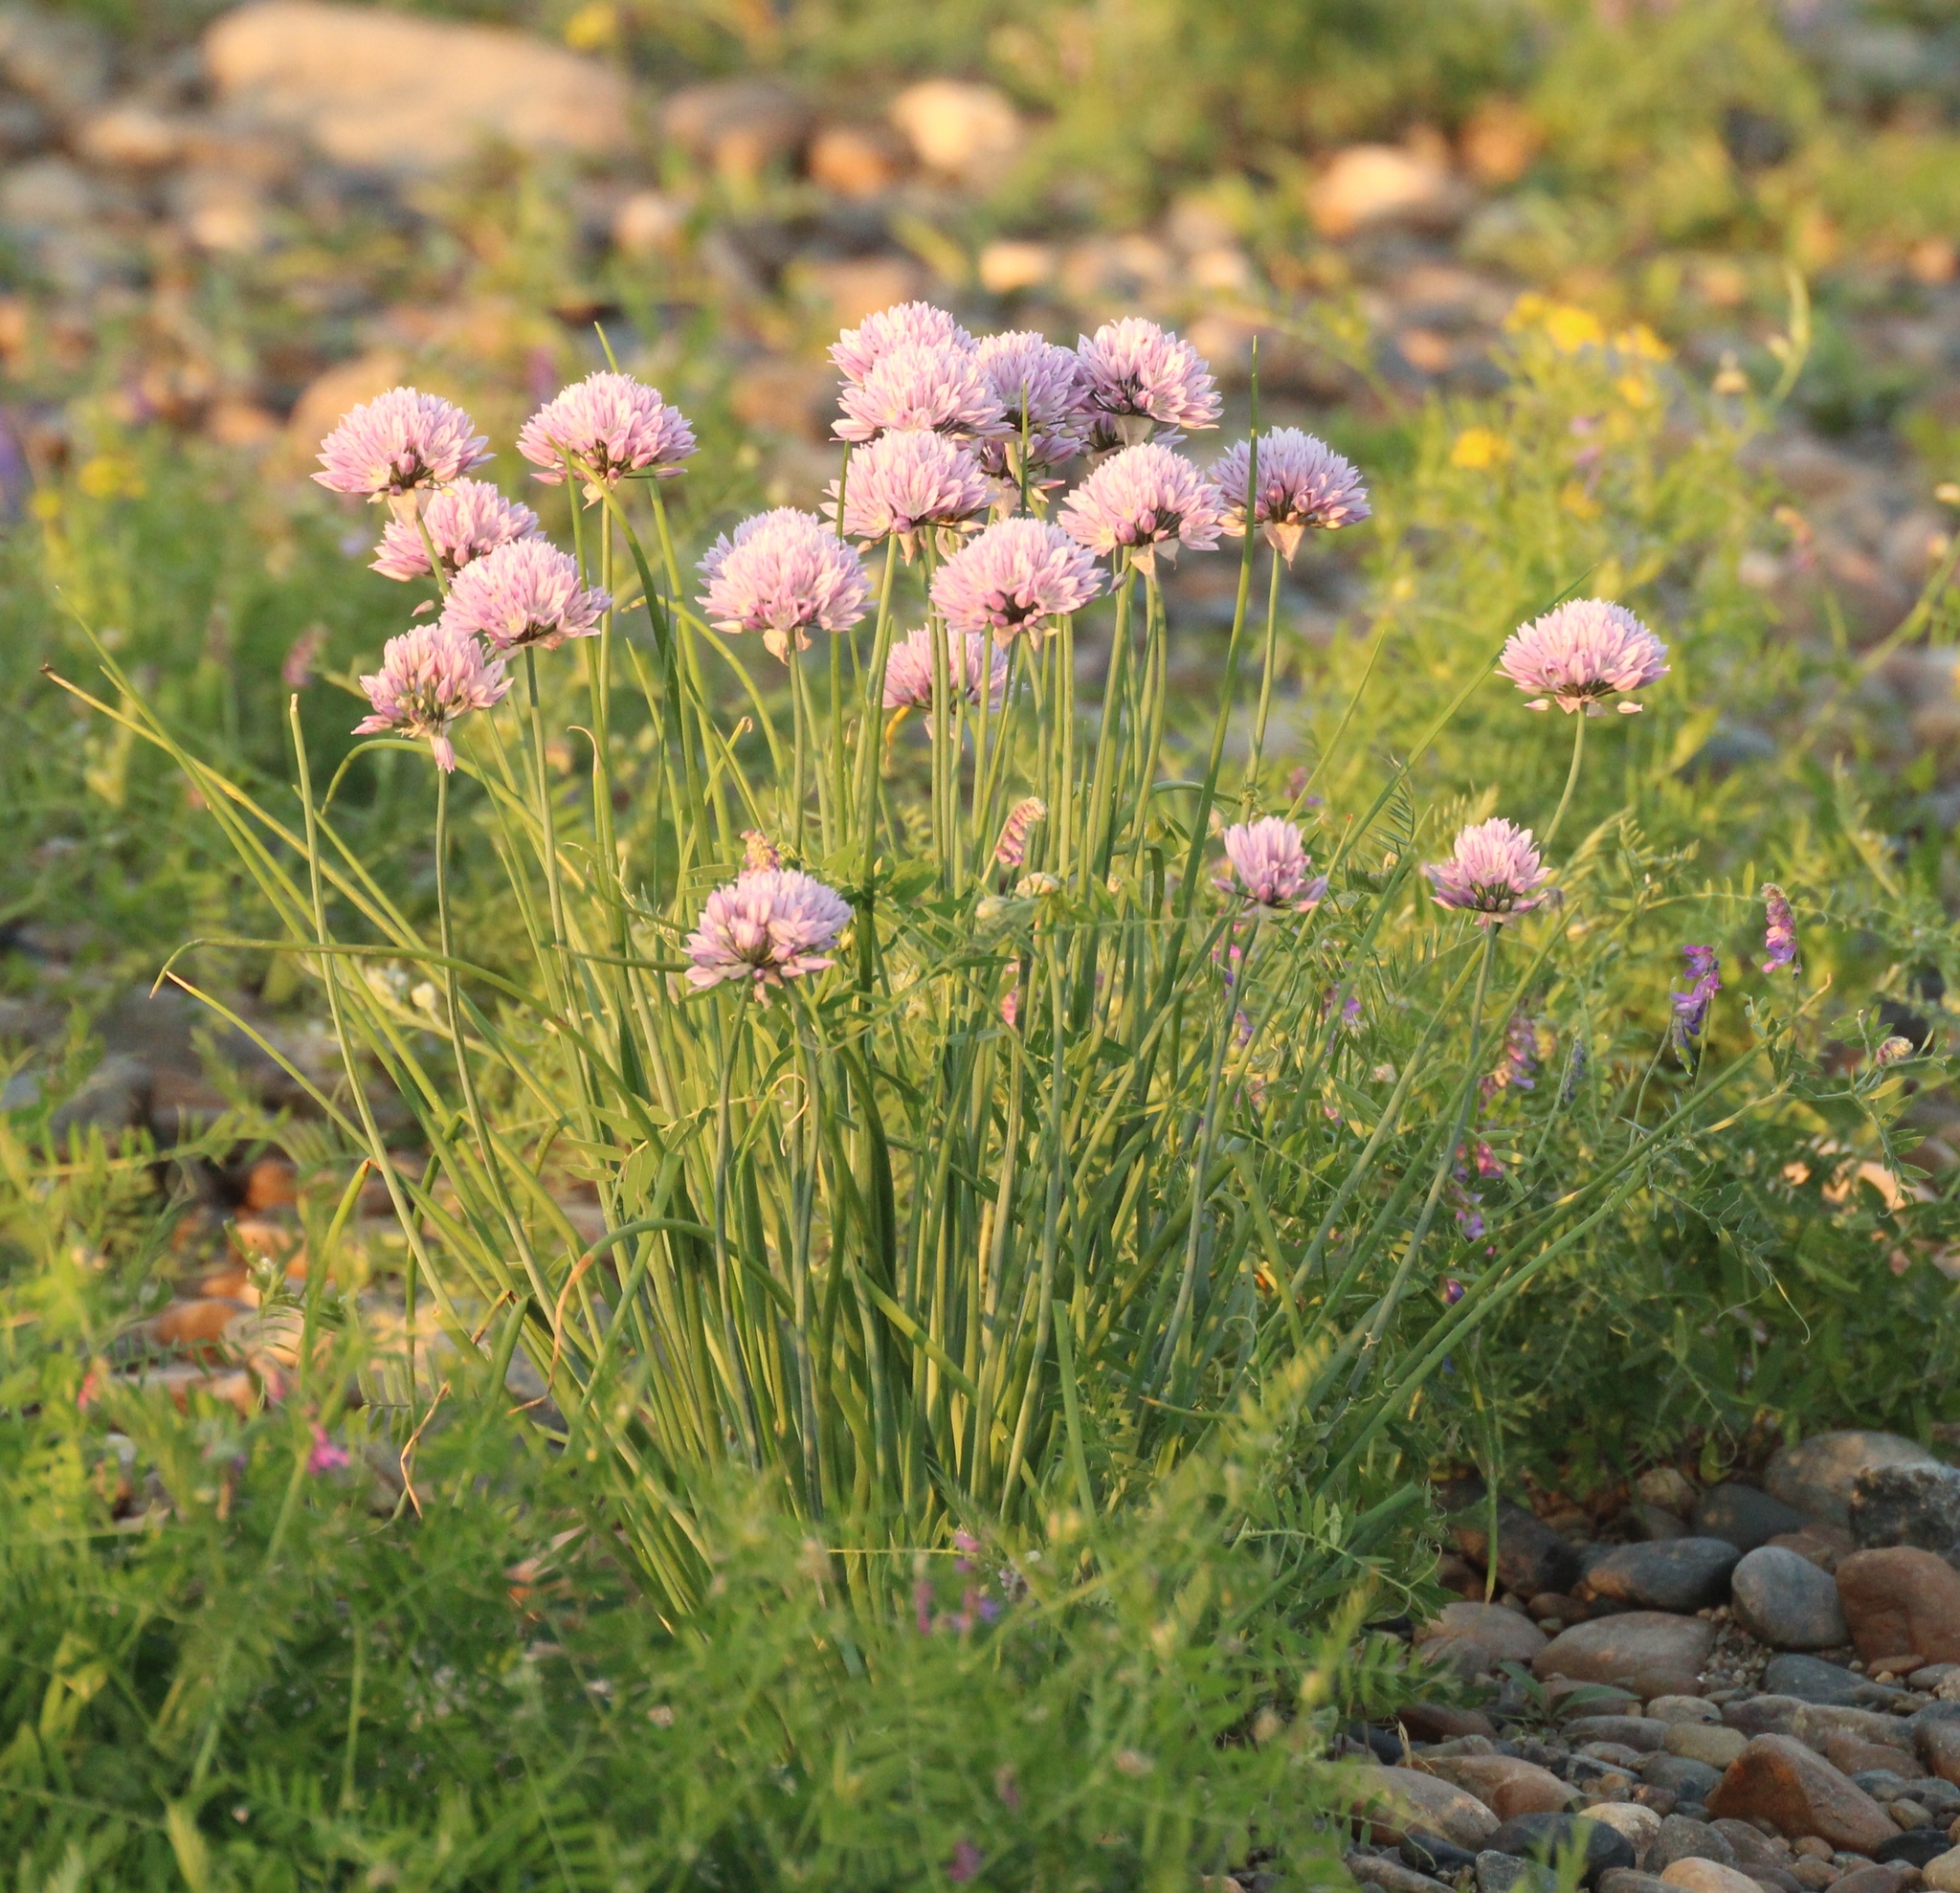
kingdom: Plantae
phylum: Tracheophyta
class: Liliopsida
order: Asparagales
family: Amaryllidaceae
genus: Allium
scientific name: Allium schoenoprasum
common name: Chives
